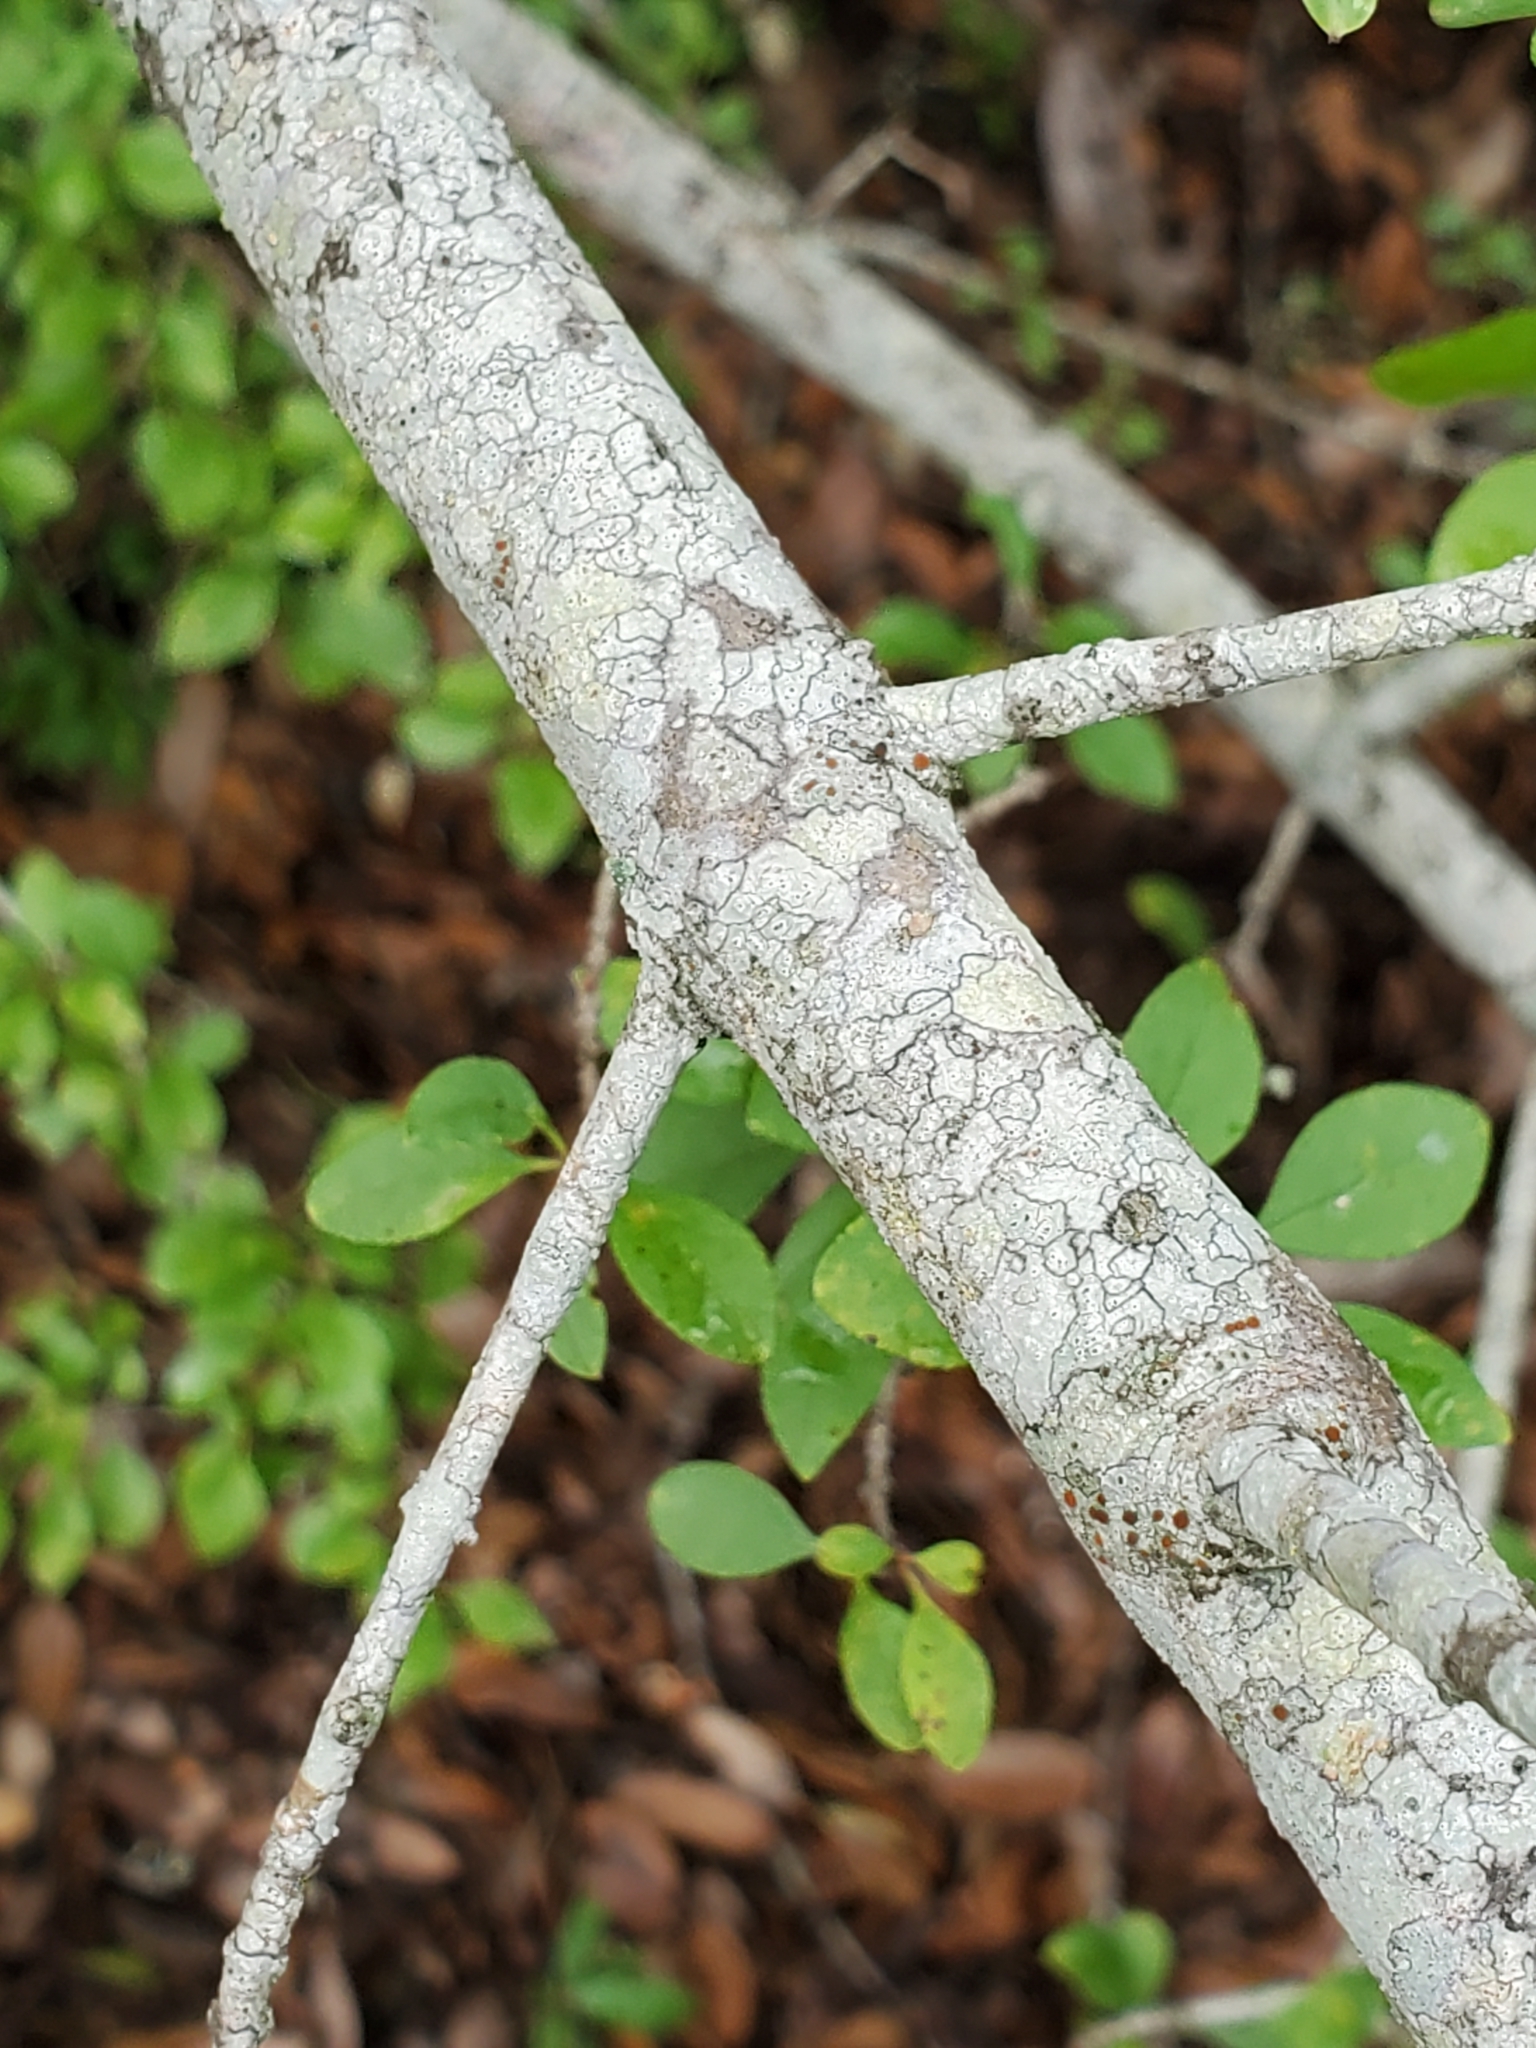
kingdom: Plantae
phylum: Tracheophyta
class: Magnoliopsida
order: Lamiales
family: Oleaceae
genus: Forestiera
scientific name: Forestiera pubescens
